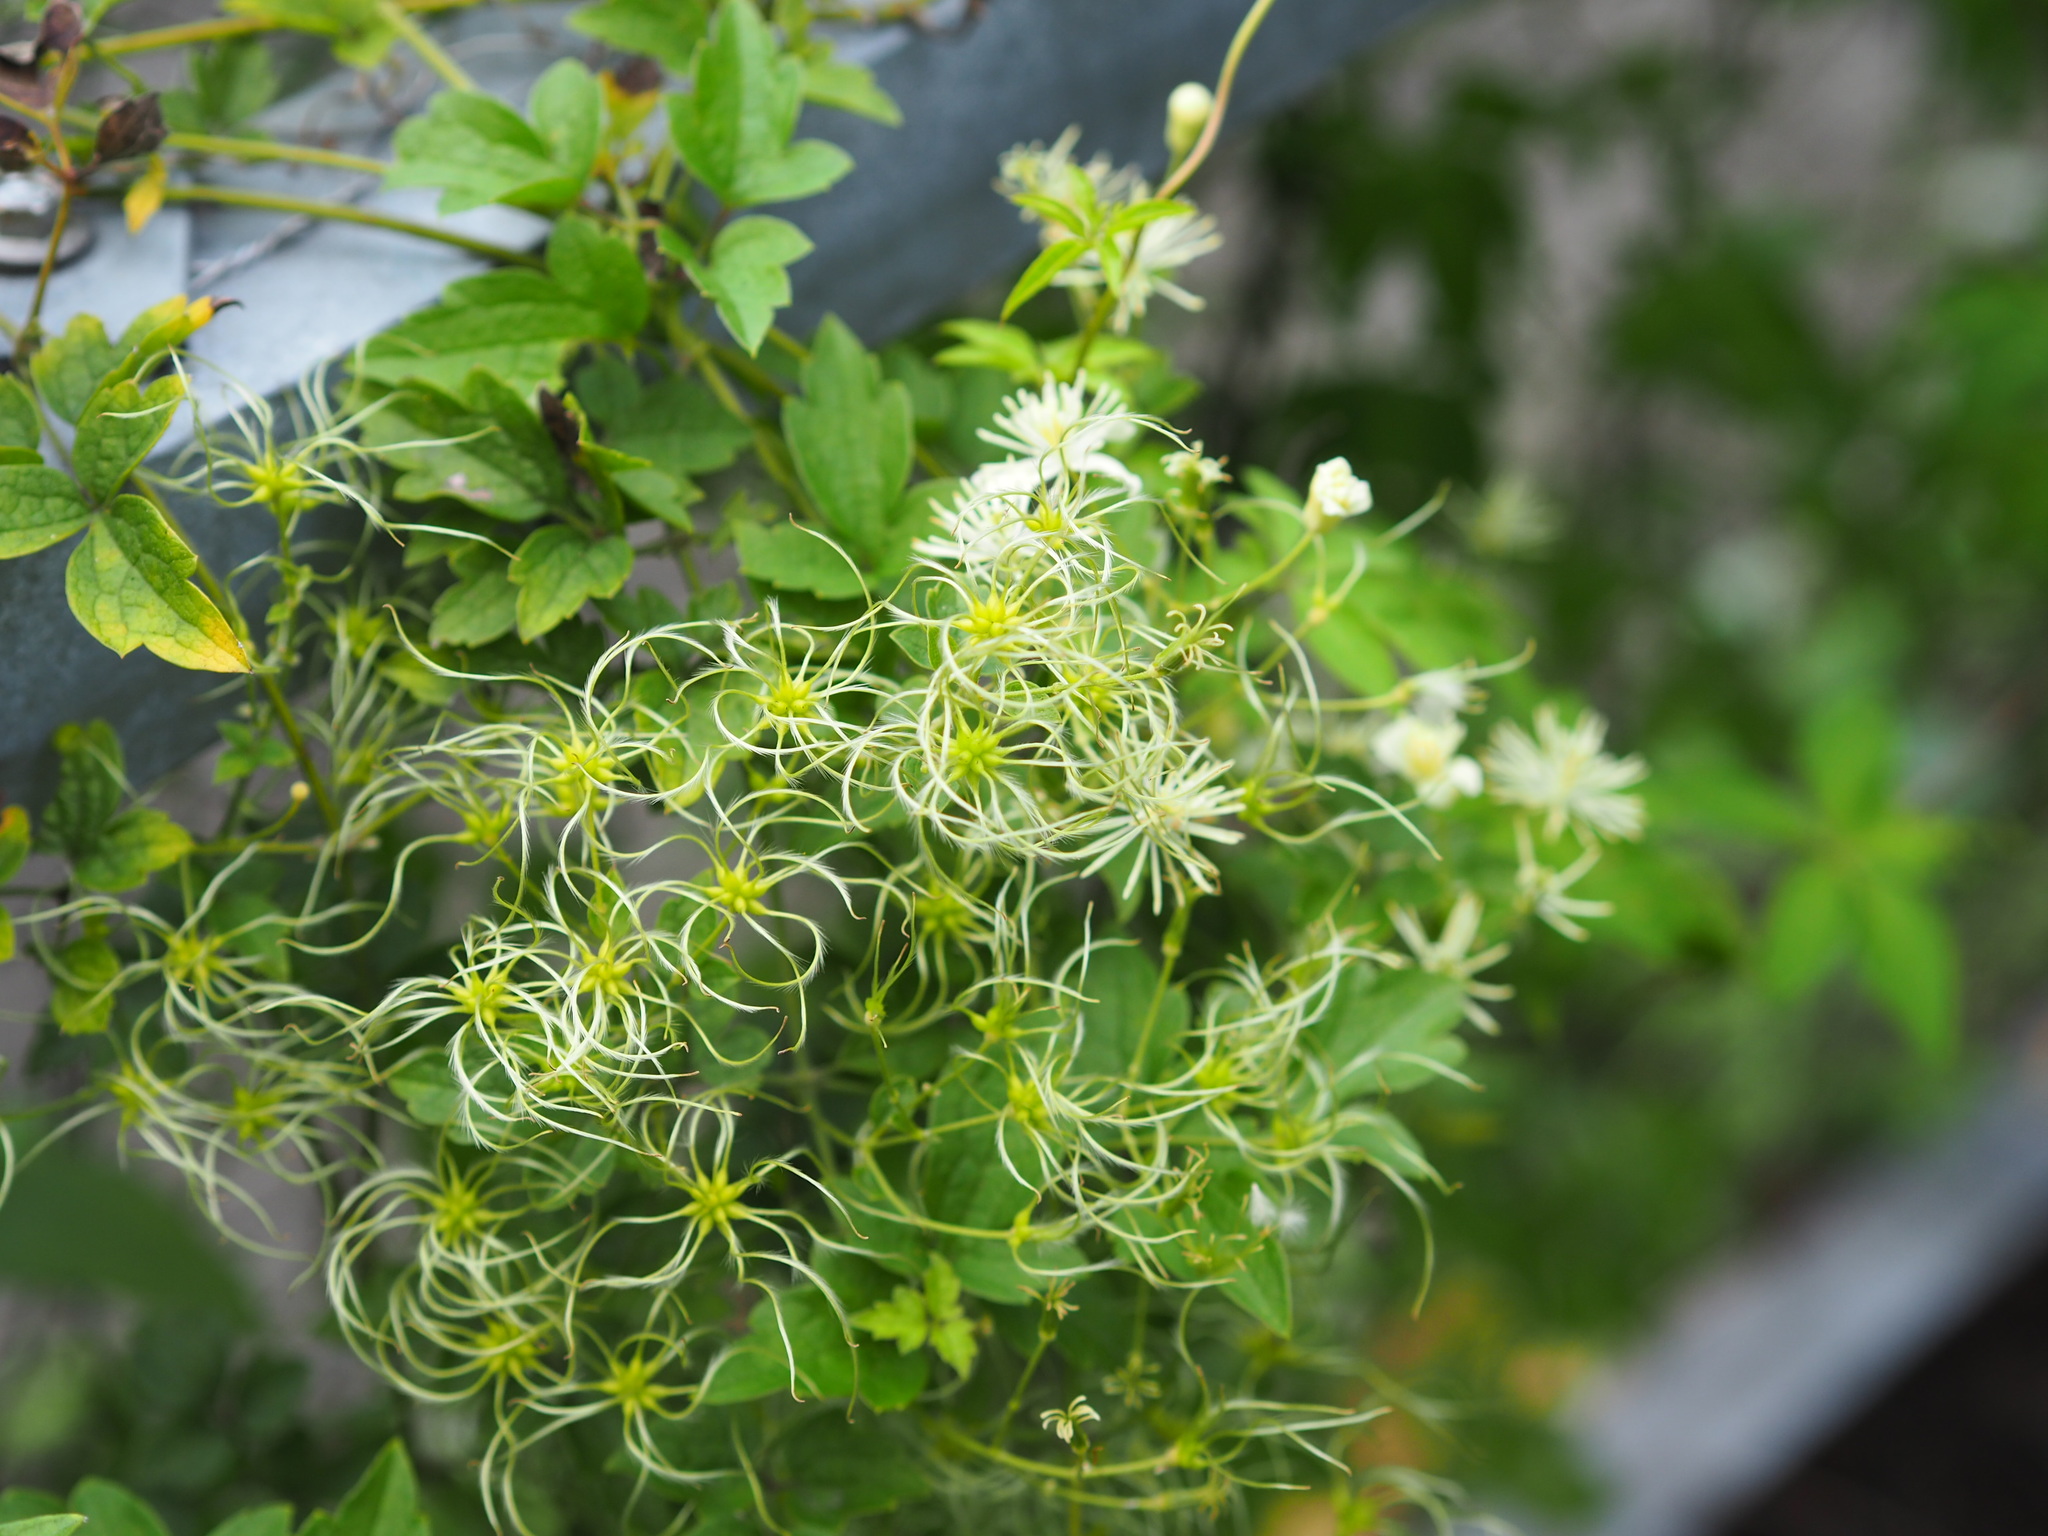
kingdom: Plantae
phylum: Tracheophyta
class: Magnoliopsida
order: Ranunculales
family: Ranunculaceae
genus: Clematis
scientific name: Clematis grata
